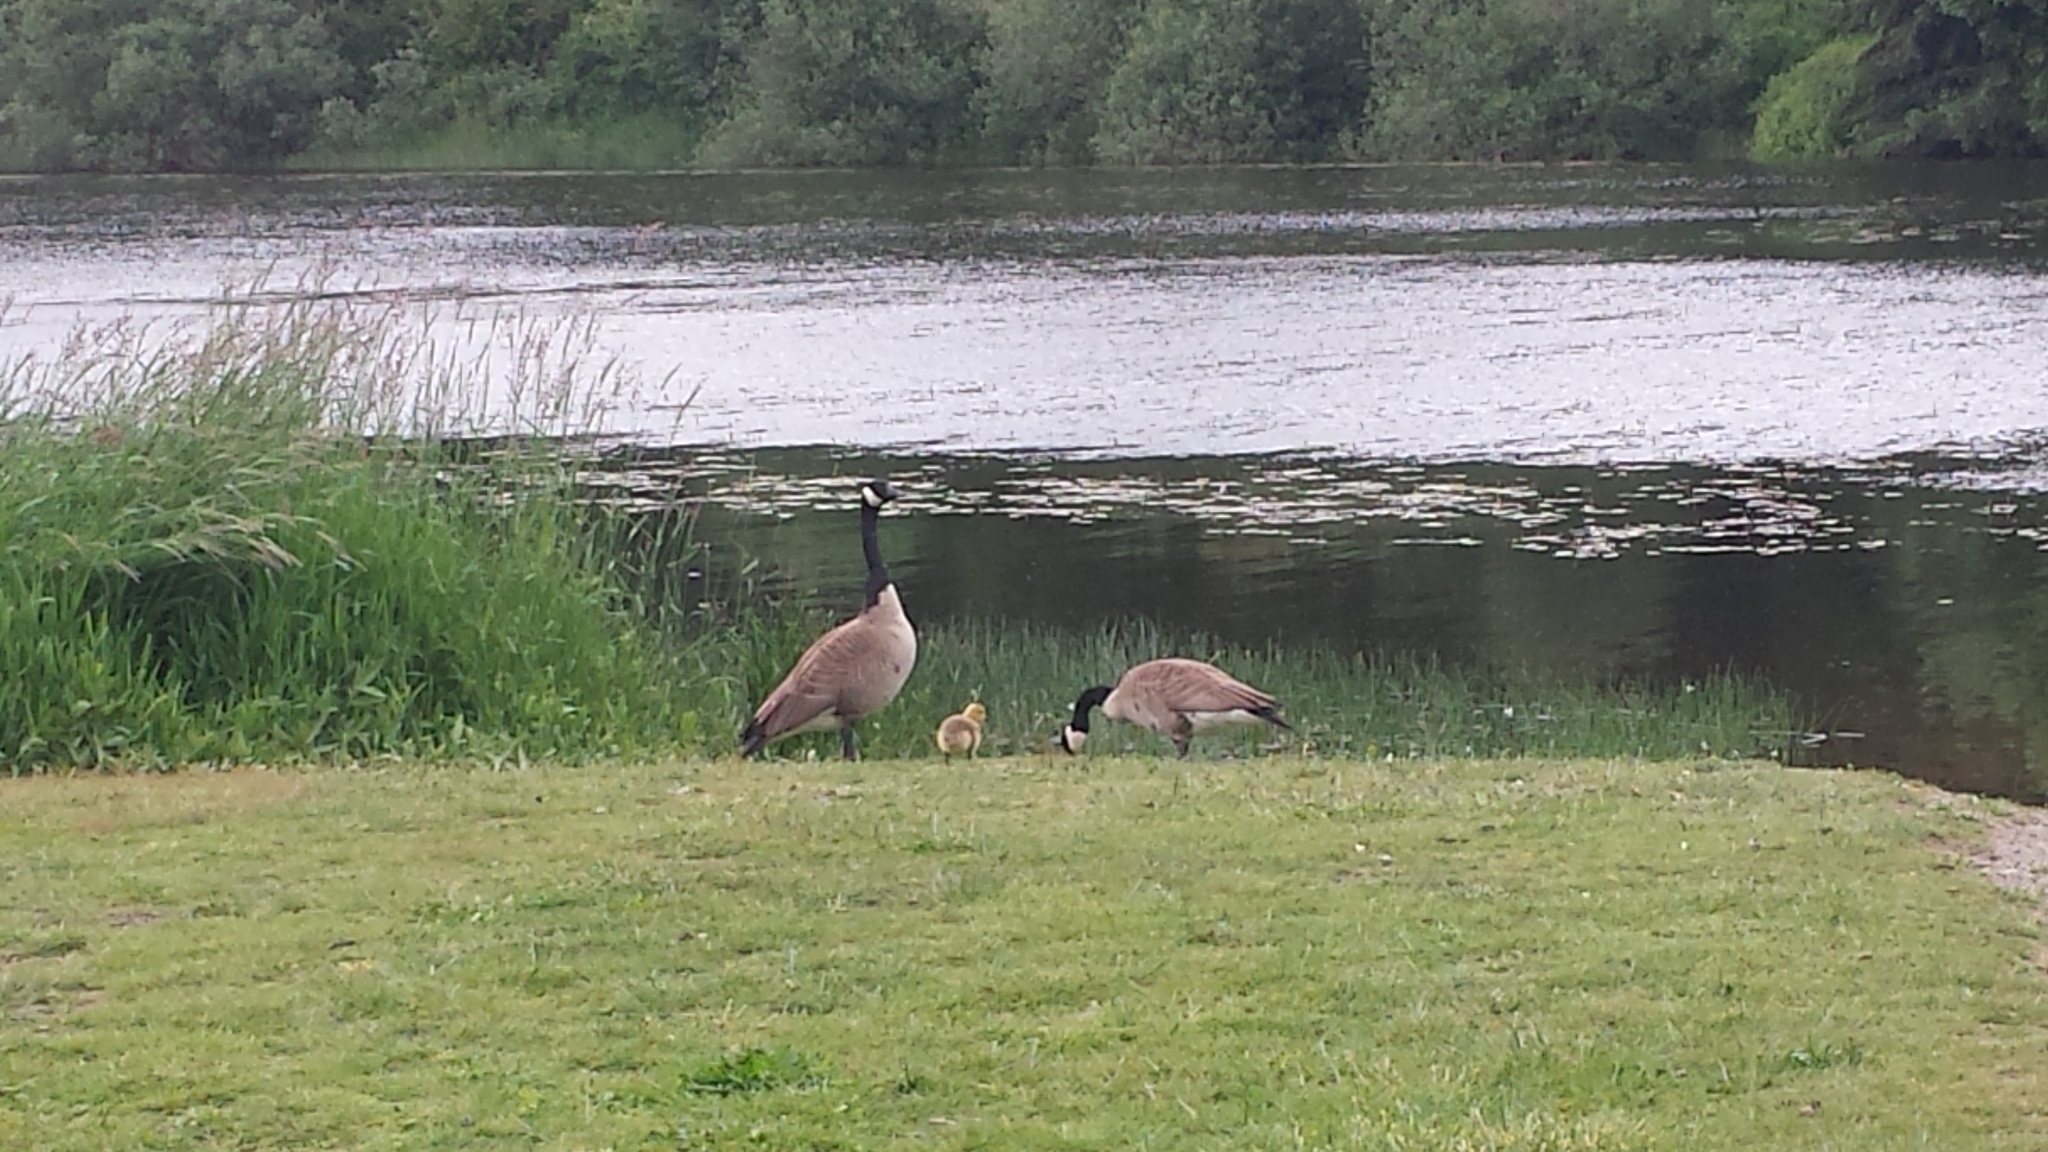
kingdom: Animalia
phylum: Chordata
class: Aves
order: Anseriformes
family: Anatidae
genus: Branta
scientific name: Branta canadensis
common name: Canada goose
